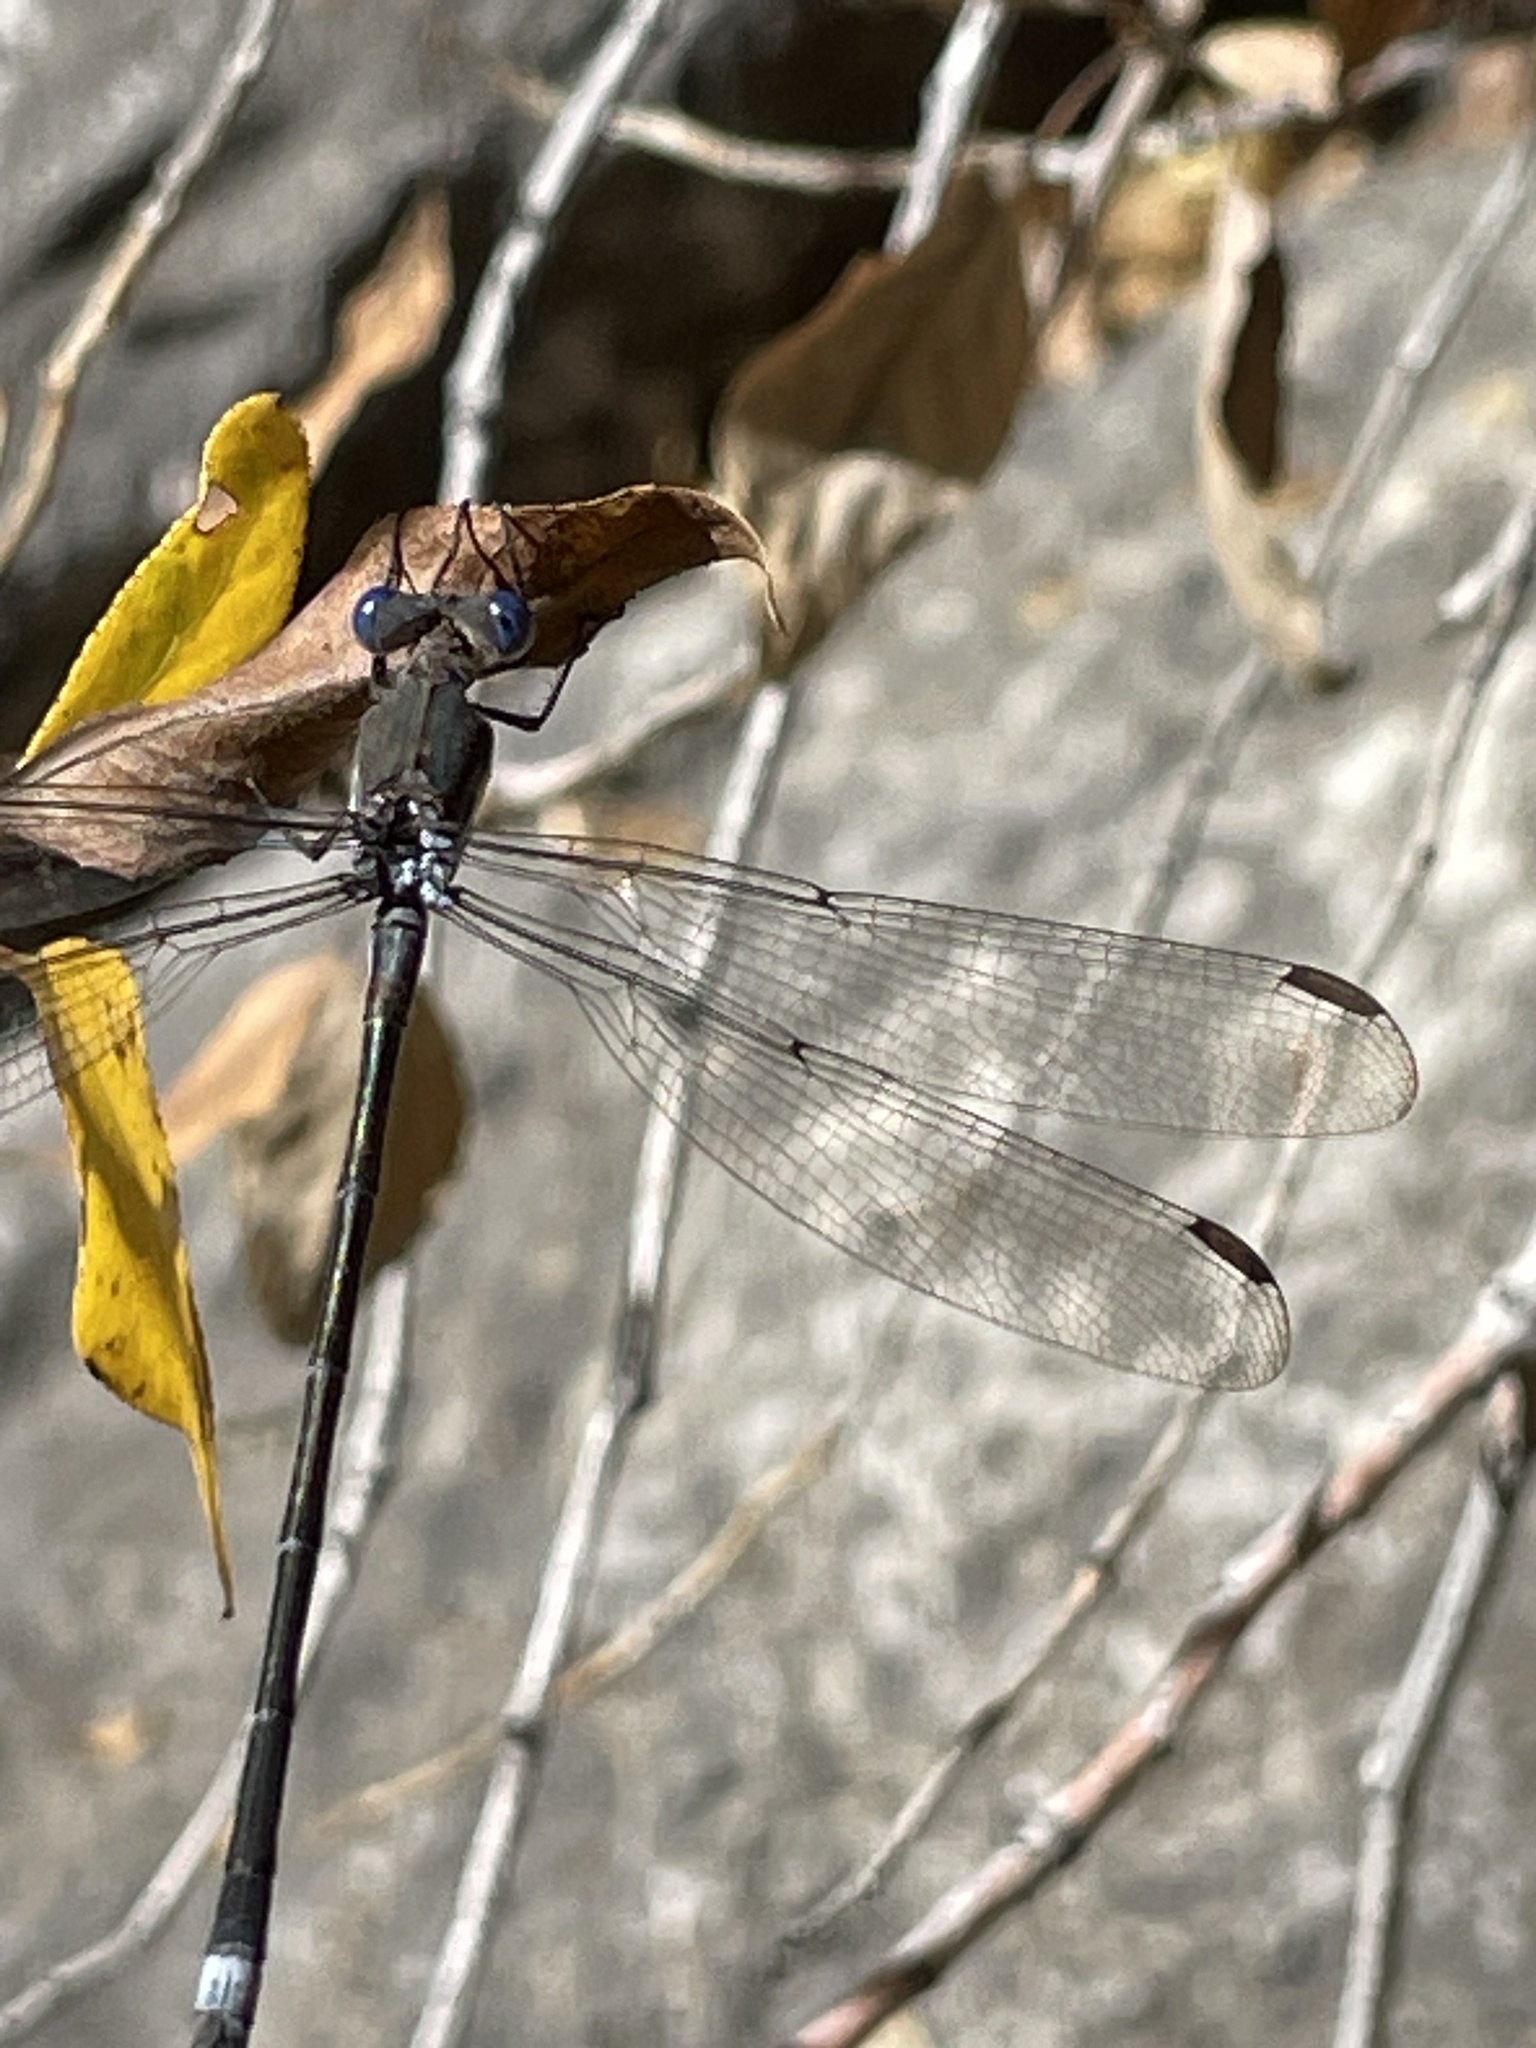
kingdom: Animalia
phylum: Arthropoda
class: Insecta
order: Odonata
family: Lestidae
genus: Archilestes
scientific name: Archilestes grandis
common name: Great spreadwing
